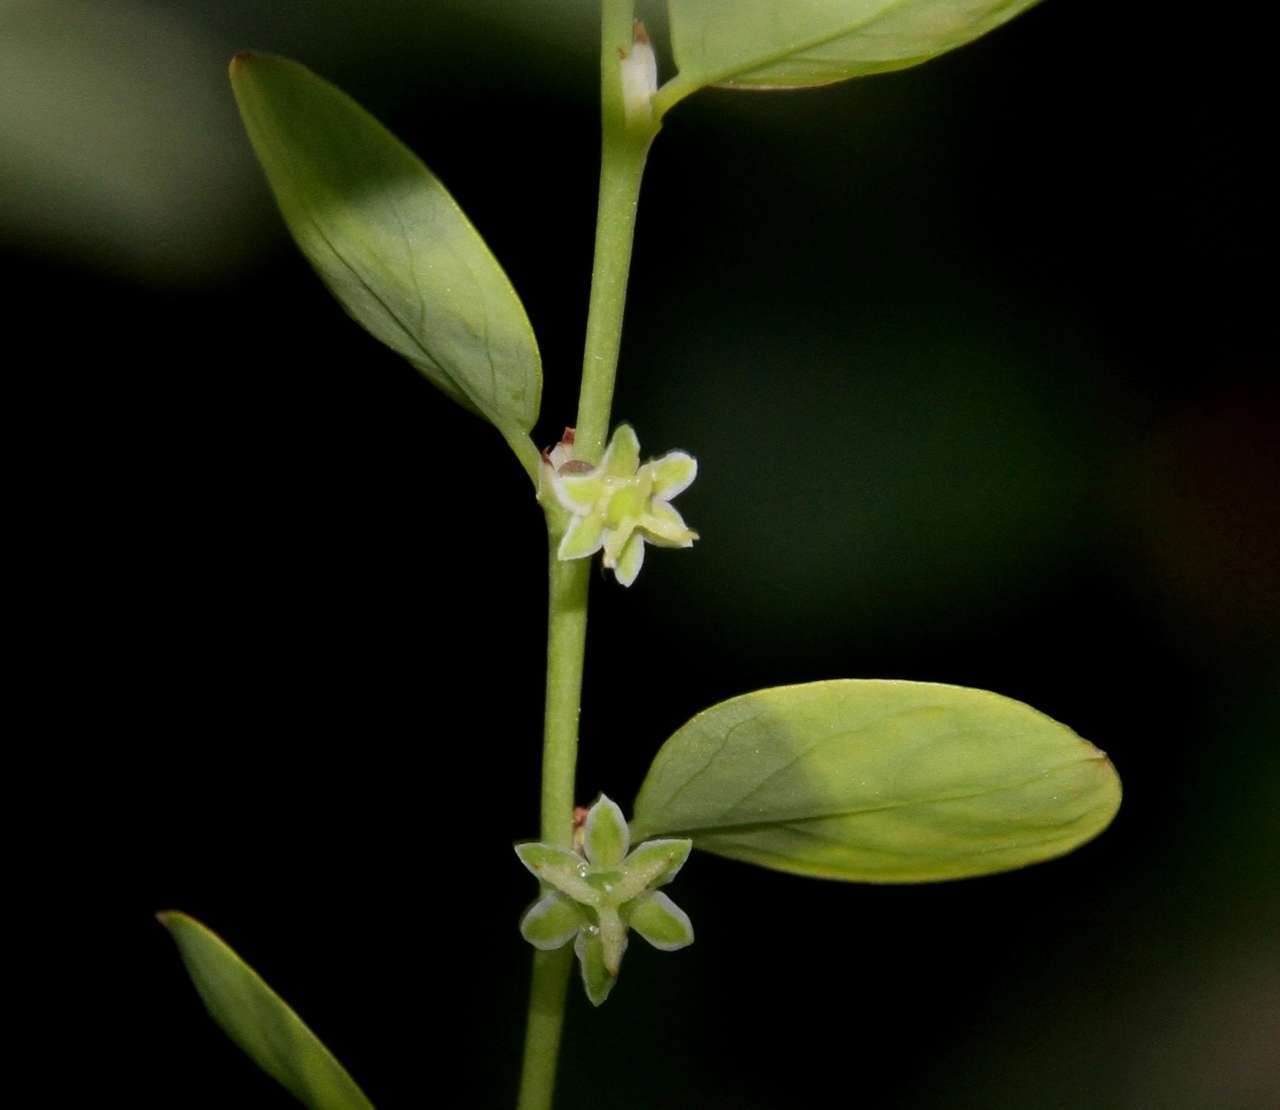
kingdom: Plantae
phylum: Tracheophyta
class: Magnoliopsida
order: Malpighiales
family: Phyllanthaceae
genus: Phyllanthus
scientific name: Phyllanthus gunnii
